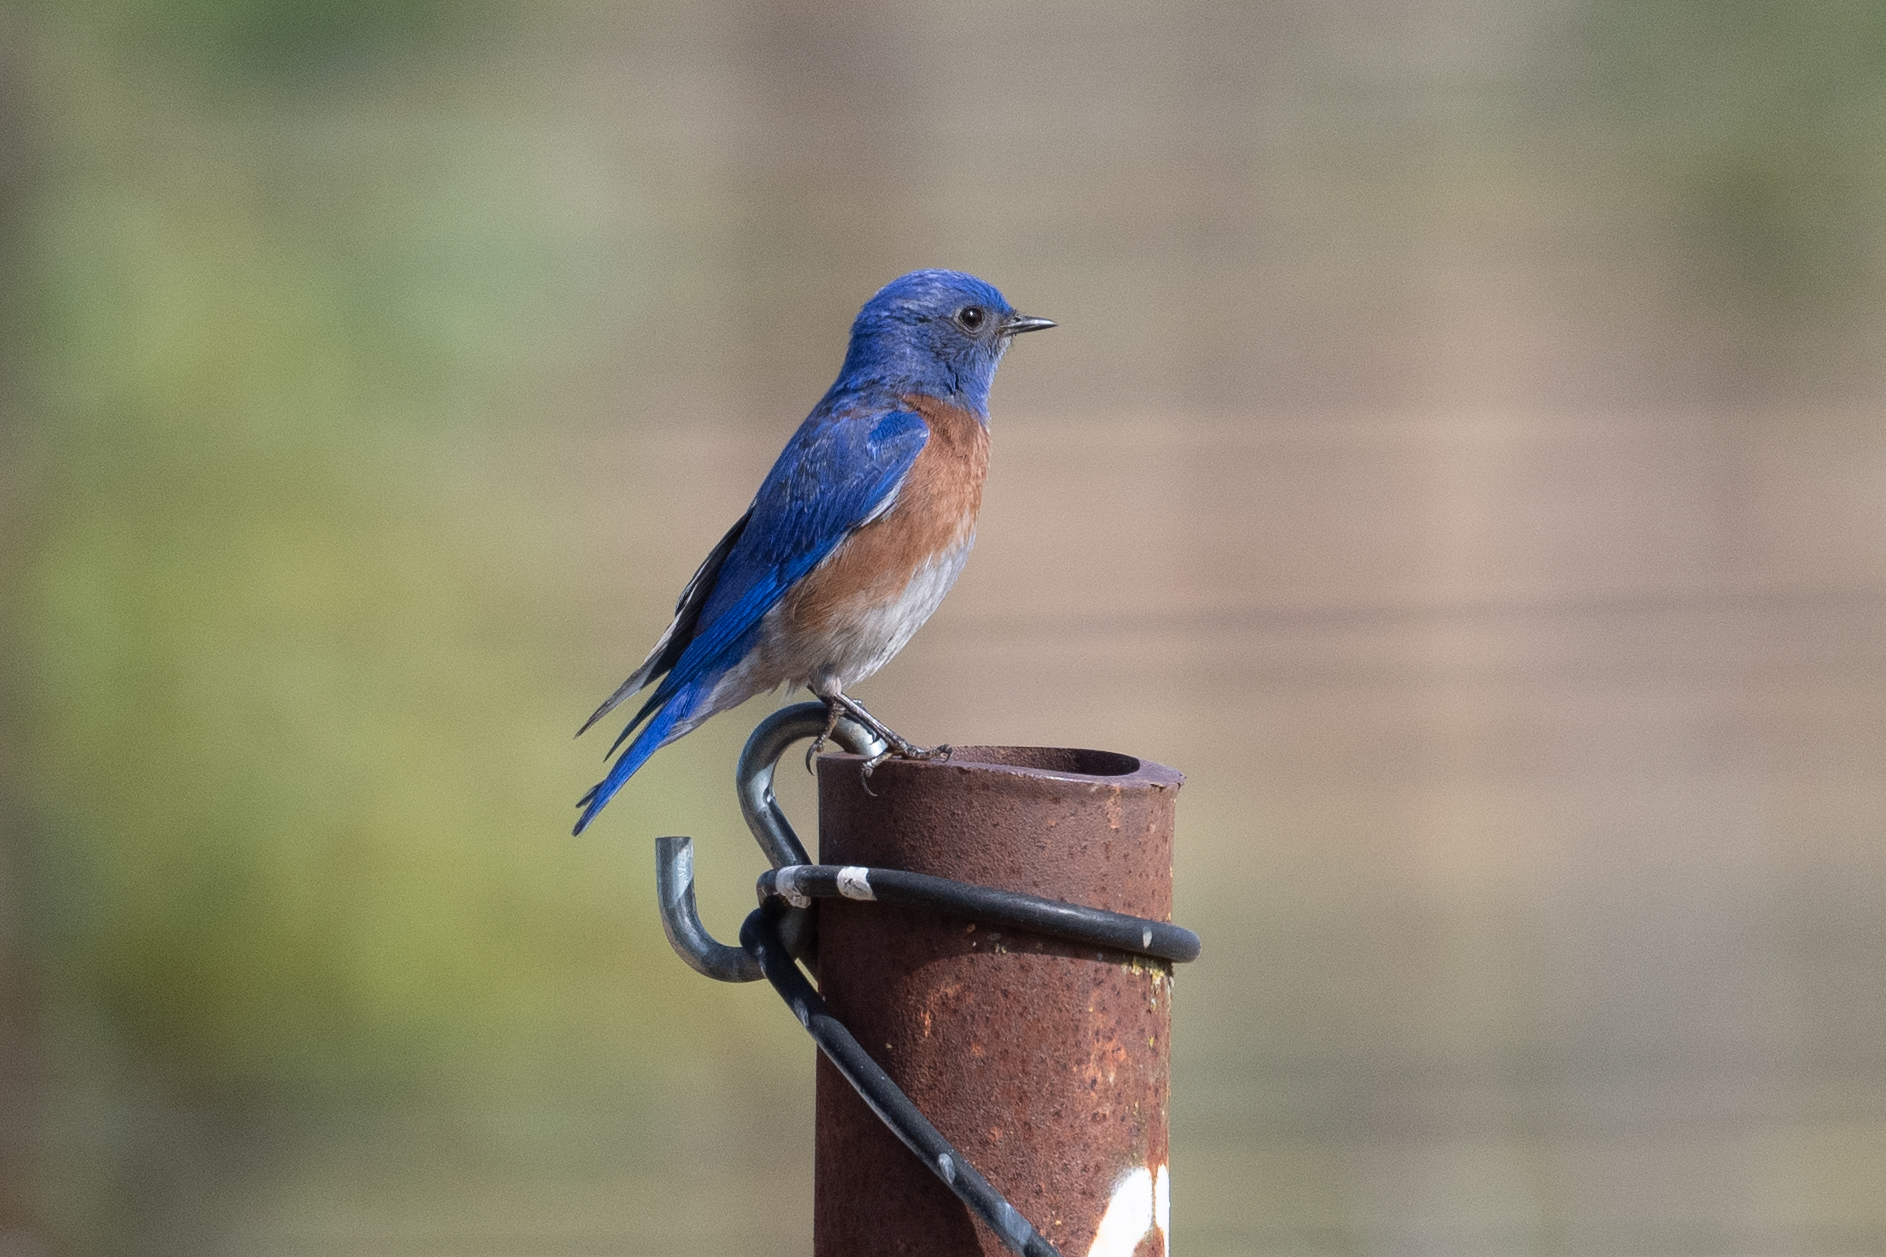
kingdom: Animalia
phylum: Chordata
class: Aves
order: Passeriformes
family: Turdidae
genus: Sialia
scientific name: Sialia mexicana
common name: Western bluebird
